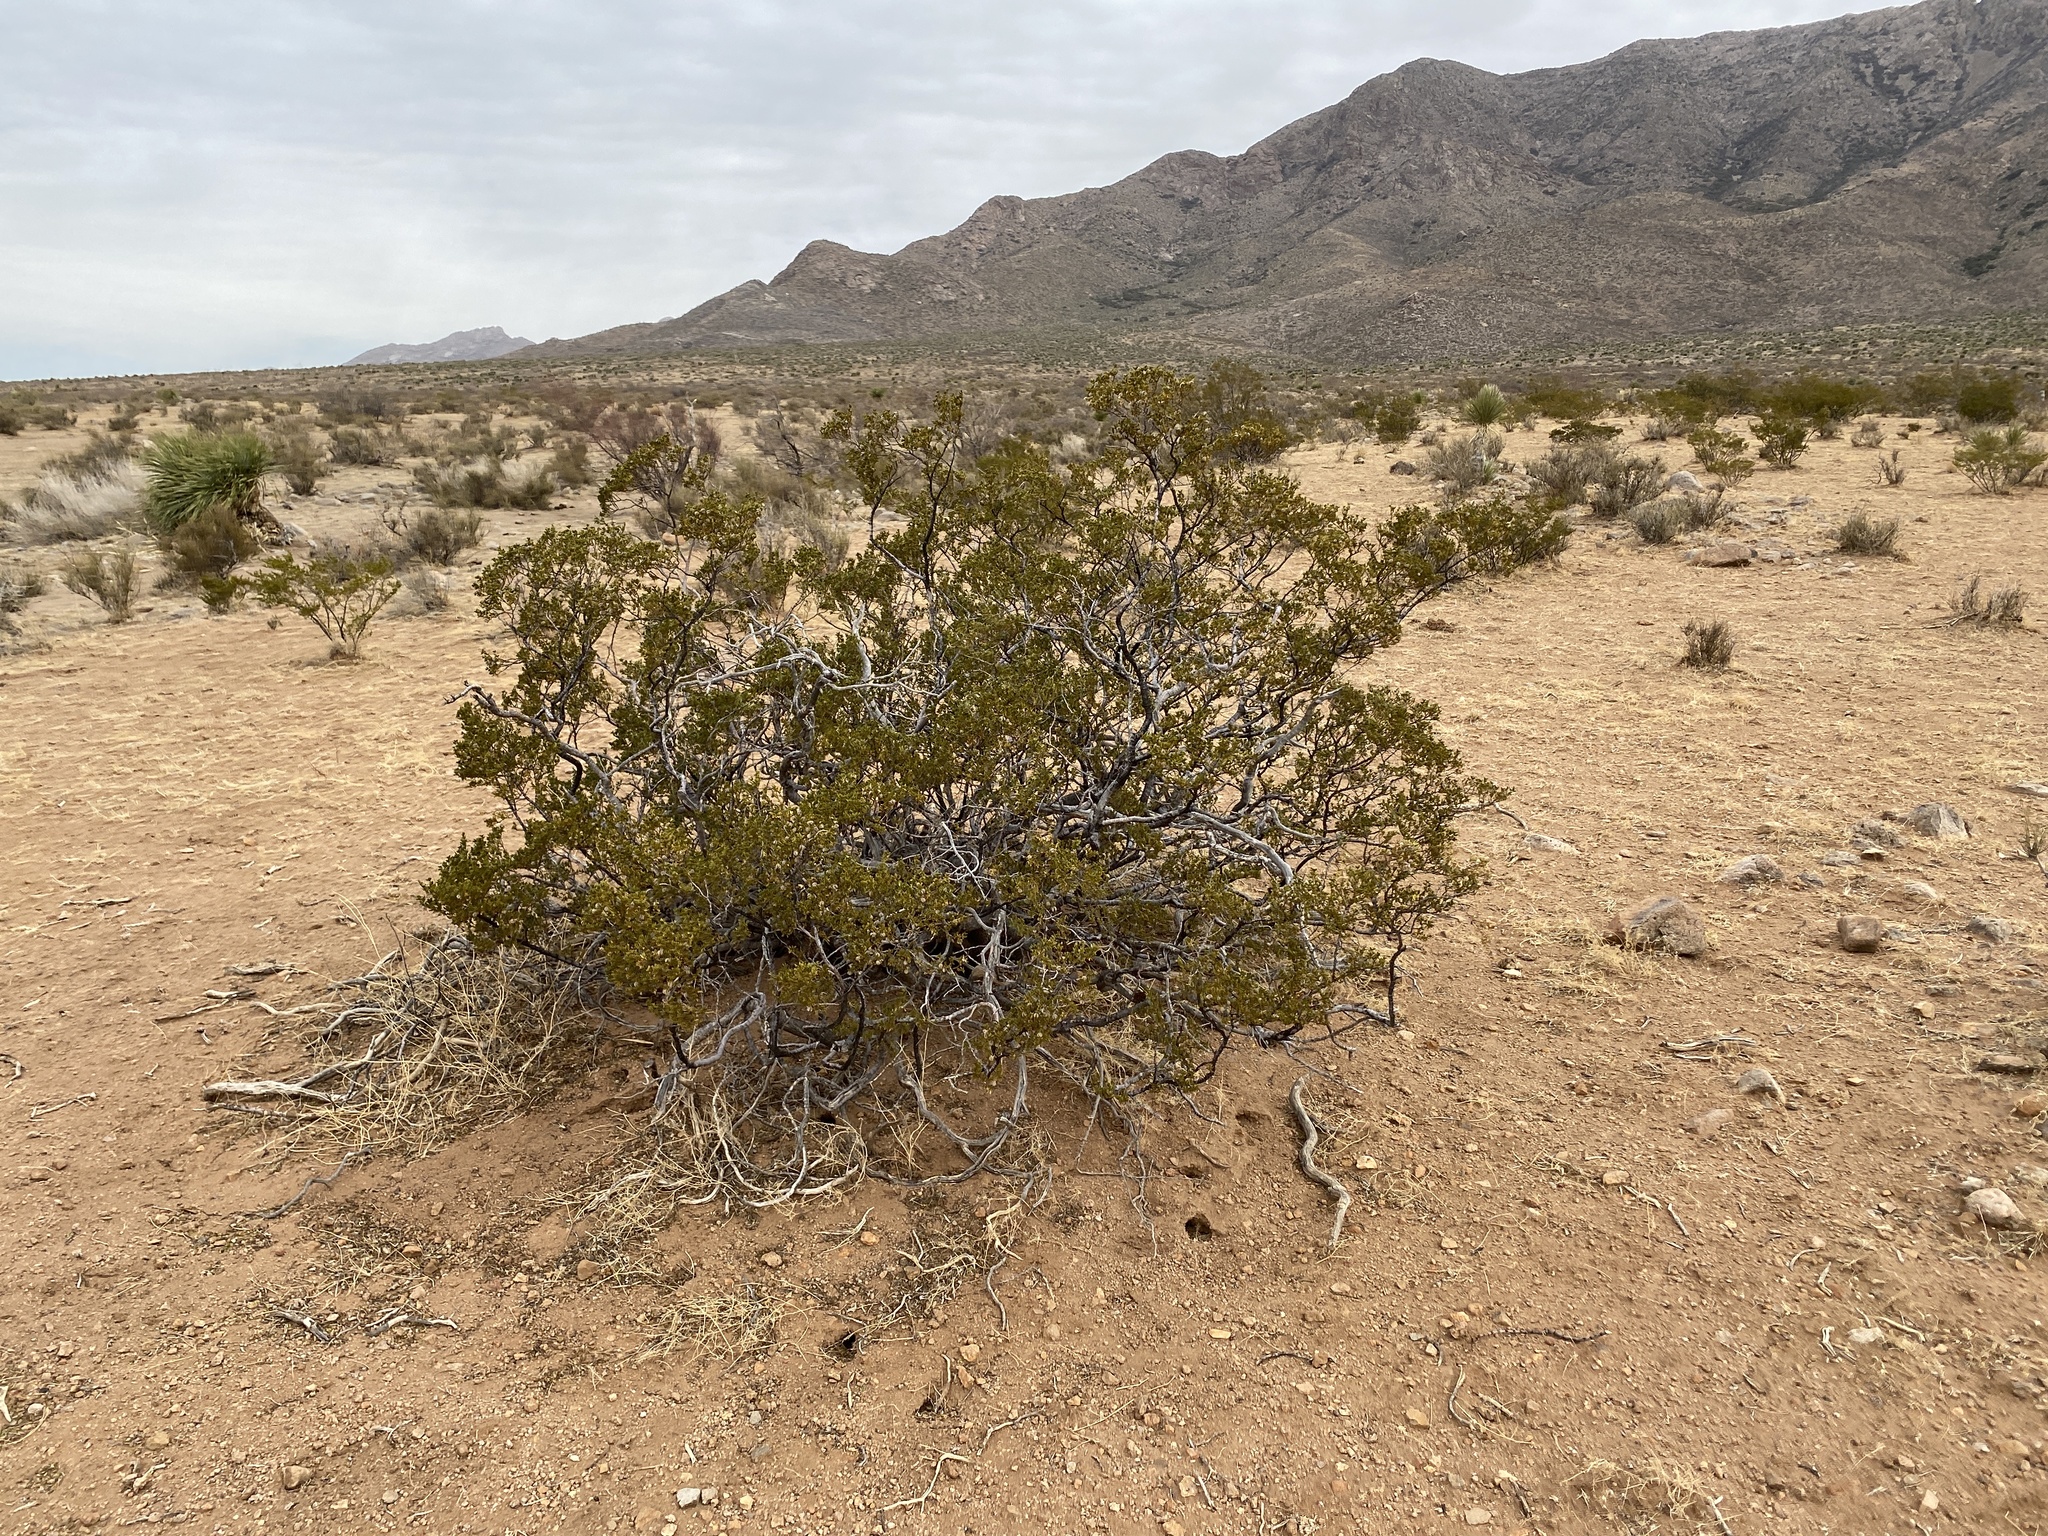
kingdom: Plantae
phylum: Tracheophyta
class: Magnoliopsida
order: Zygophyllales
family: Zygophyllaceae
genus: Larrea
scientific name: Larrea tridentata
